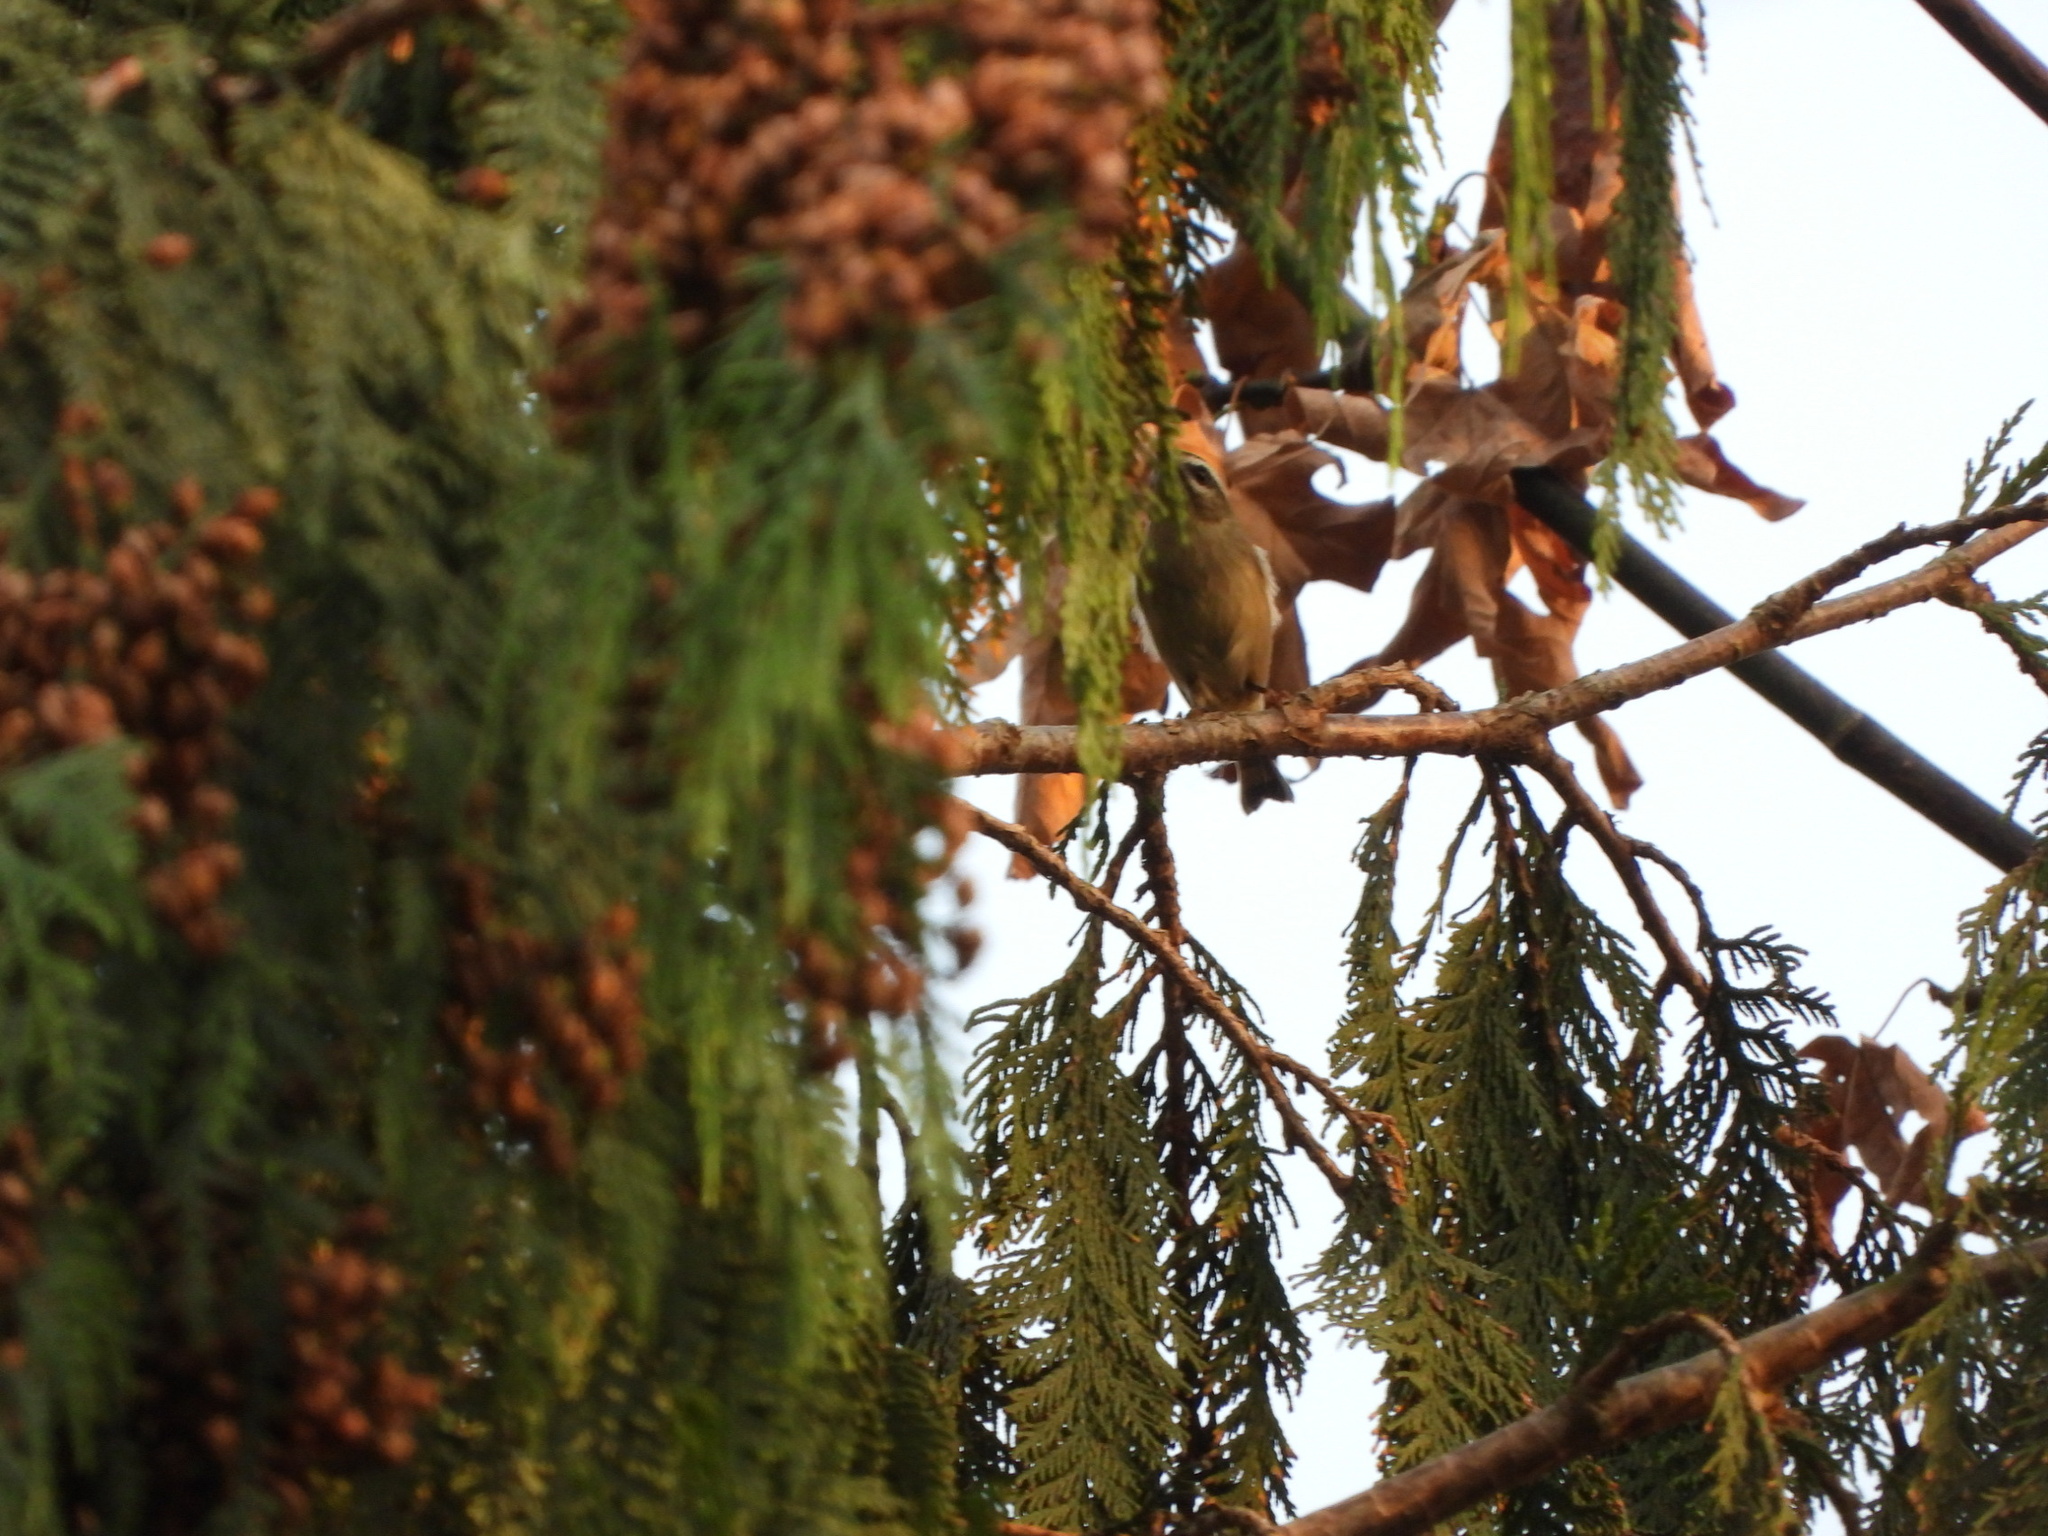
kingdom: Animalia
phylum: Chordata
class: Aves
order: Passeriformes
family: Regulidae
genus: Regulus
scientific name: Regulus satrapa
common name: Golden-crowned kinglet
